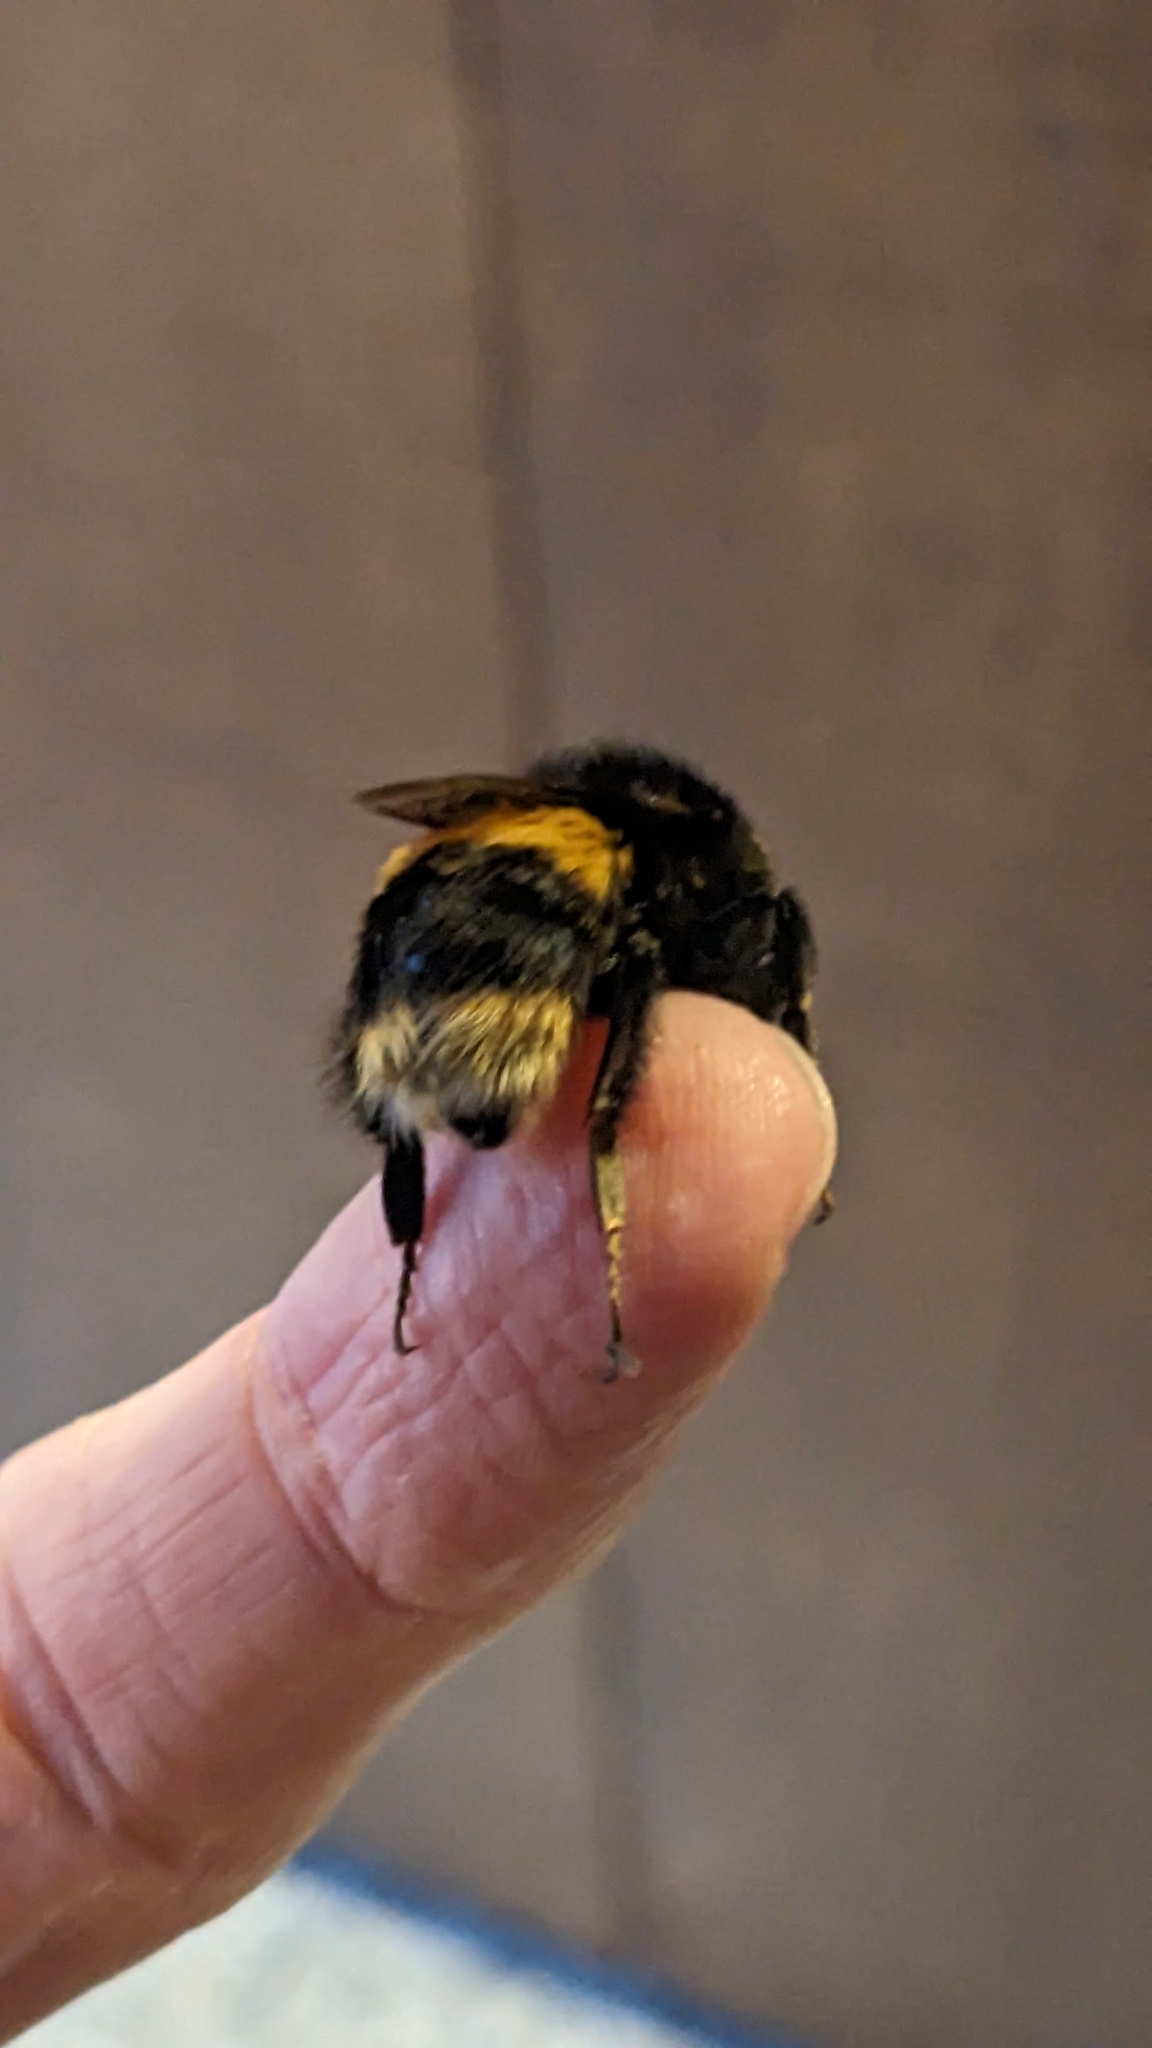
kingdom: Animalia
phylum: Arthropoda
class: Insecta
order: Hymenoptera
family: Apidae
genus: Bombus
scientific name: Bombus terrestris
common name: Buff-tailed bumblebee
